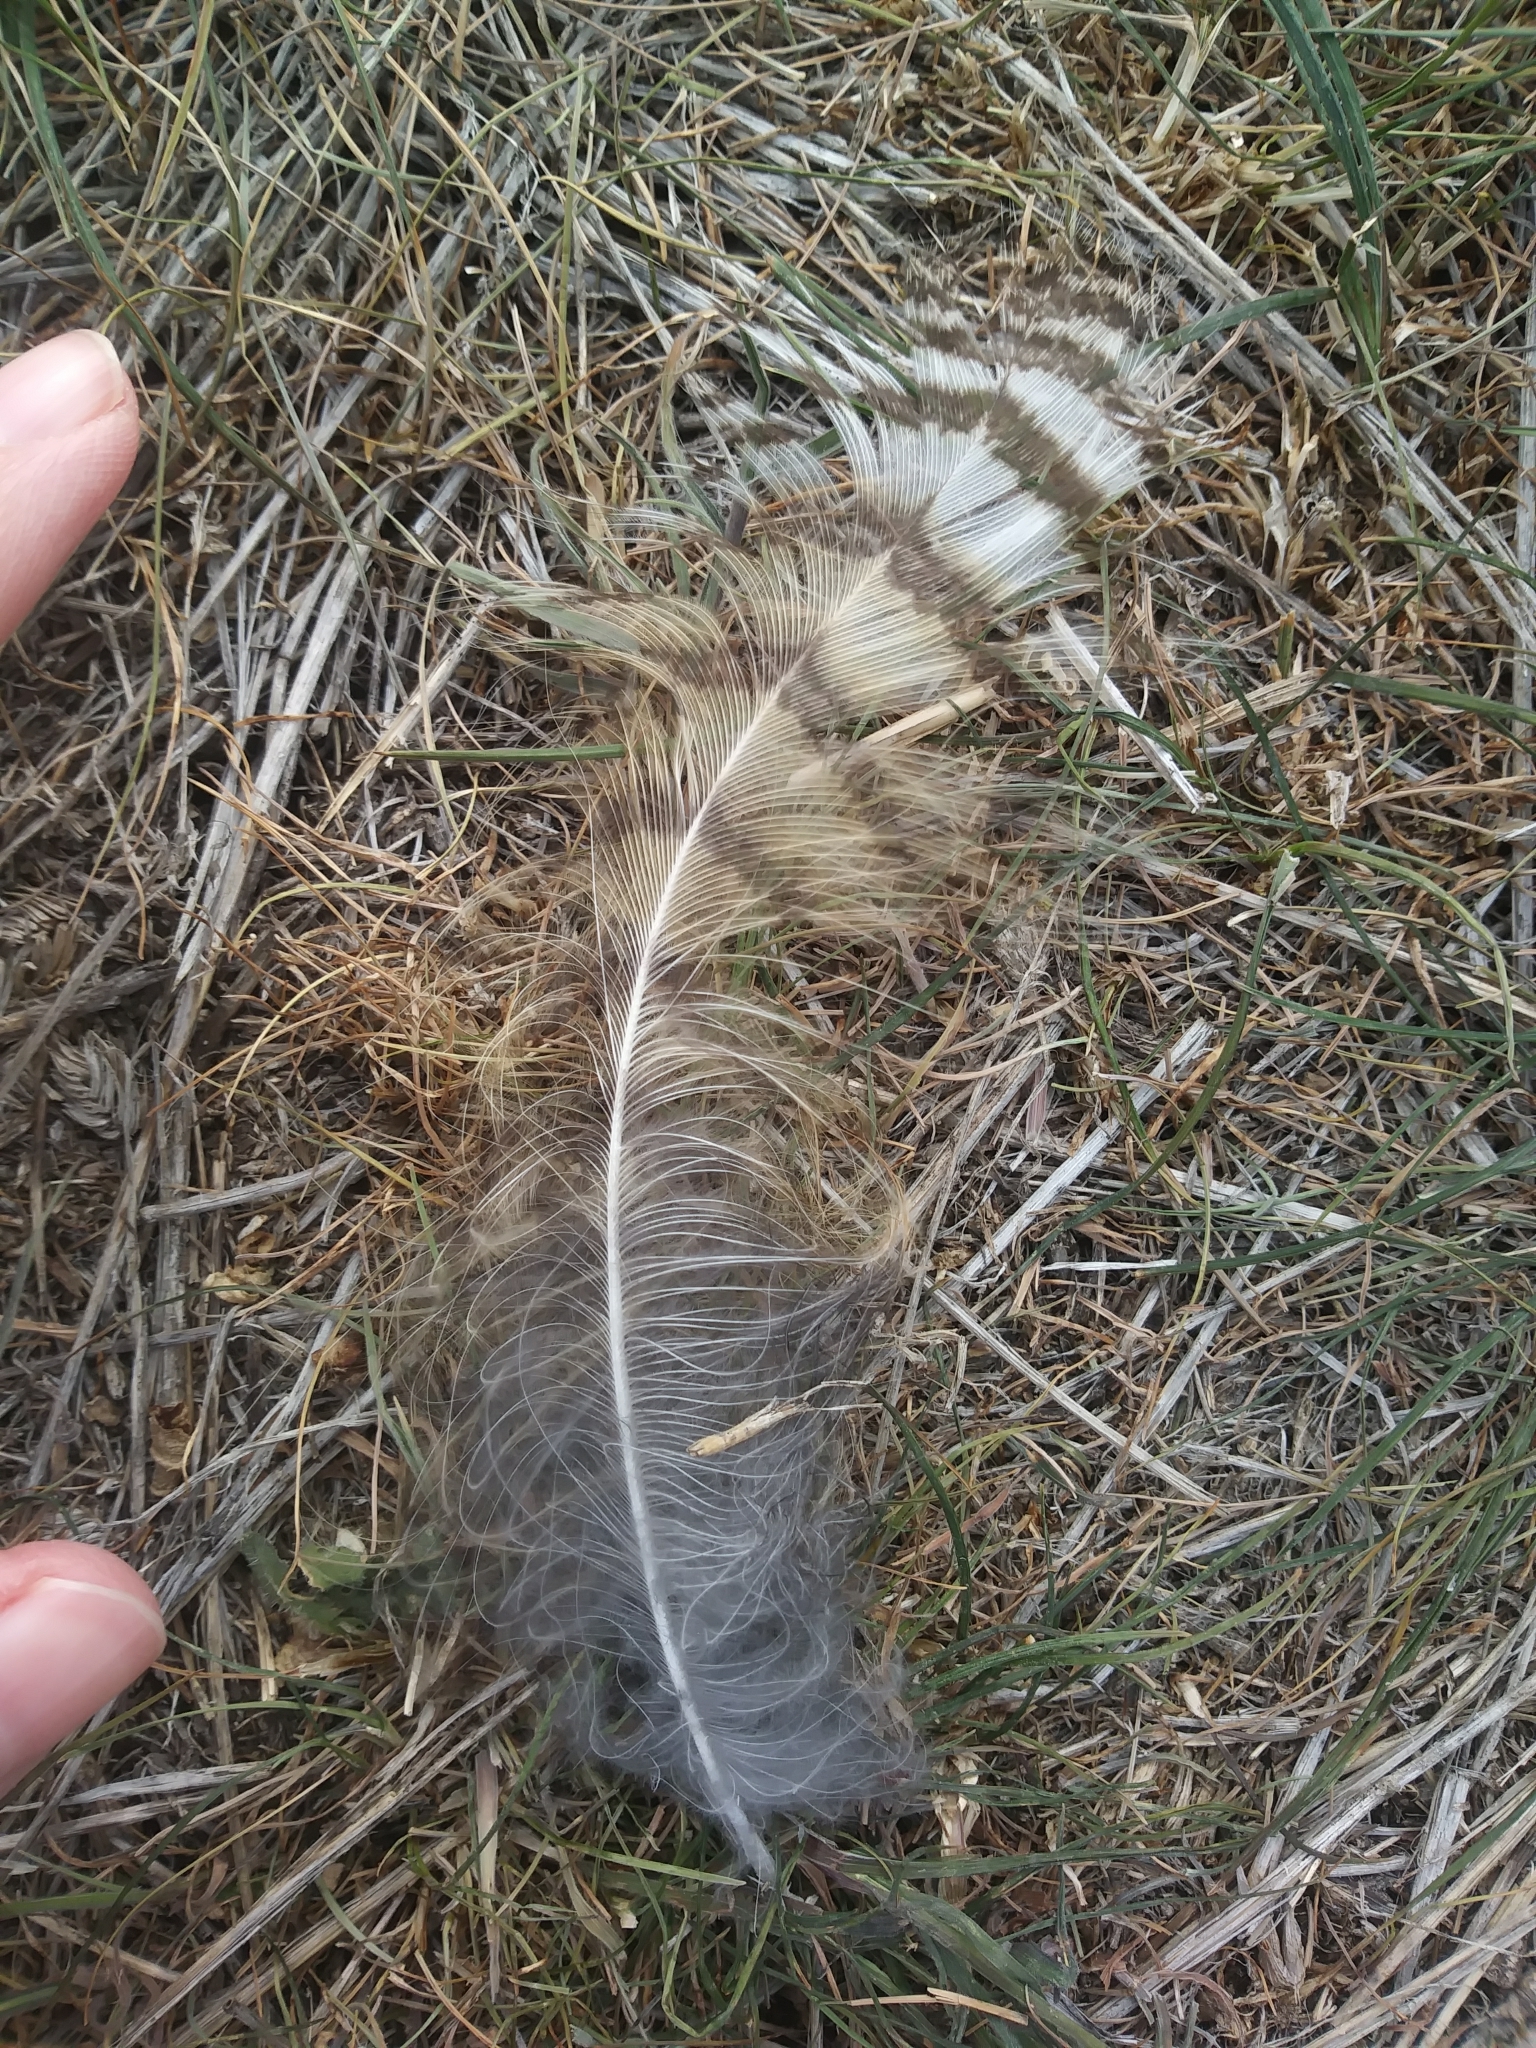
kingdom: Animalia
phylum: Chordata
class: Aves
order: Strigiformes
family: Strigidae
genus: Bubo
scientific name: Bubo virginianus
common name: Great horned owl
